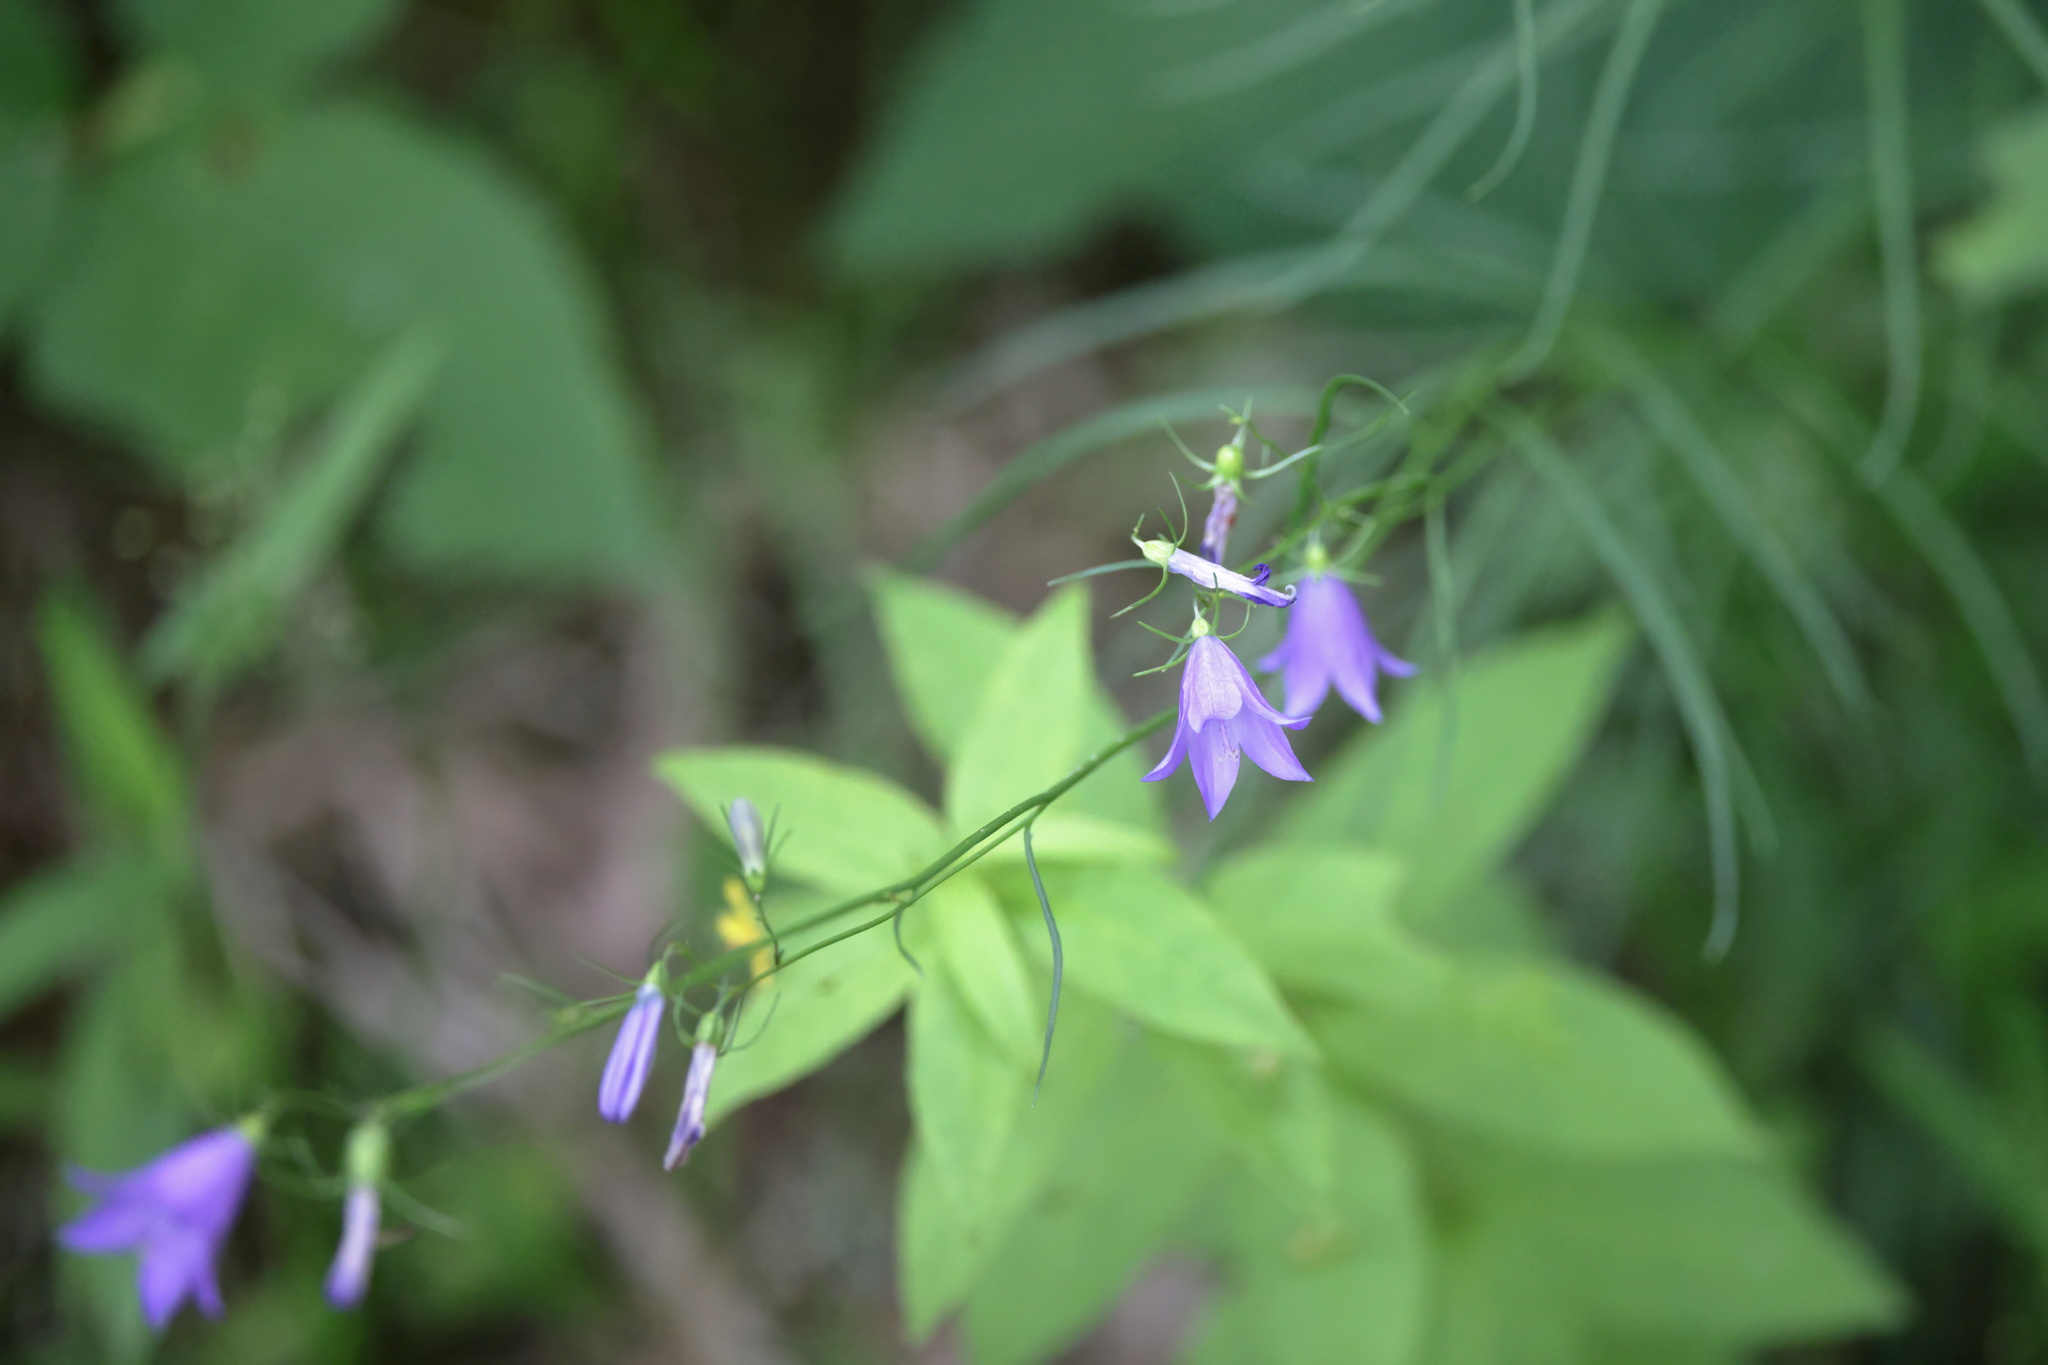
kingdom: Plantae
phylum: Tracheophyta
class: Magnoliopsida
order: Asterales
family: Campanulaceae
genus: Campanula
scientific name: Campanula intercedens
